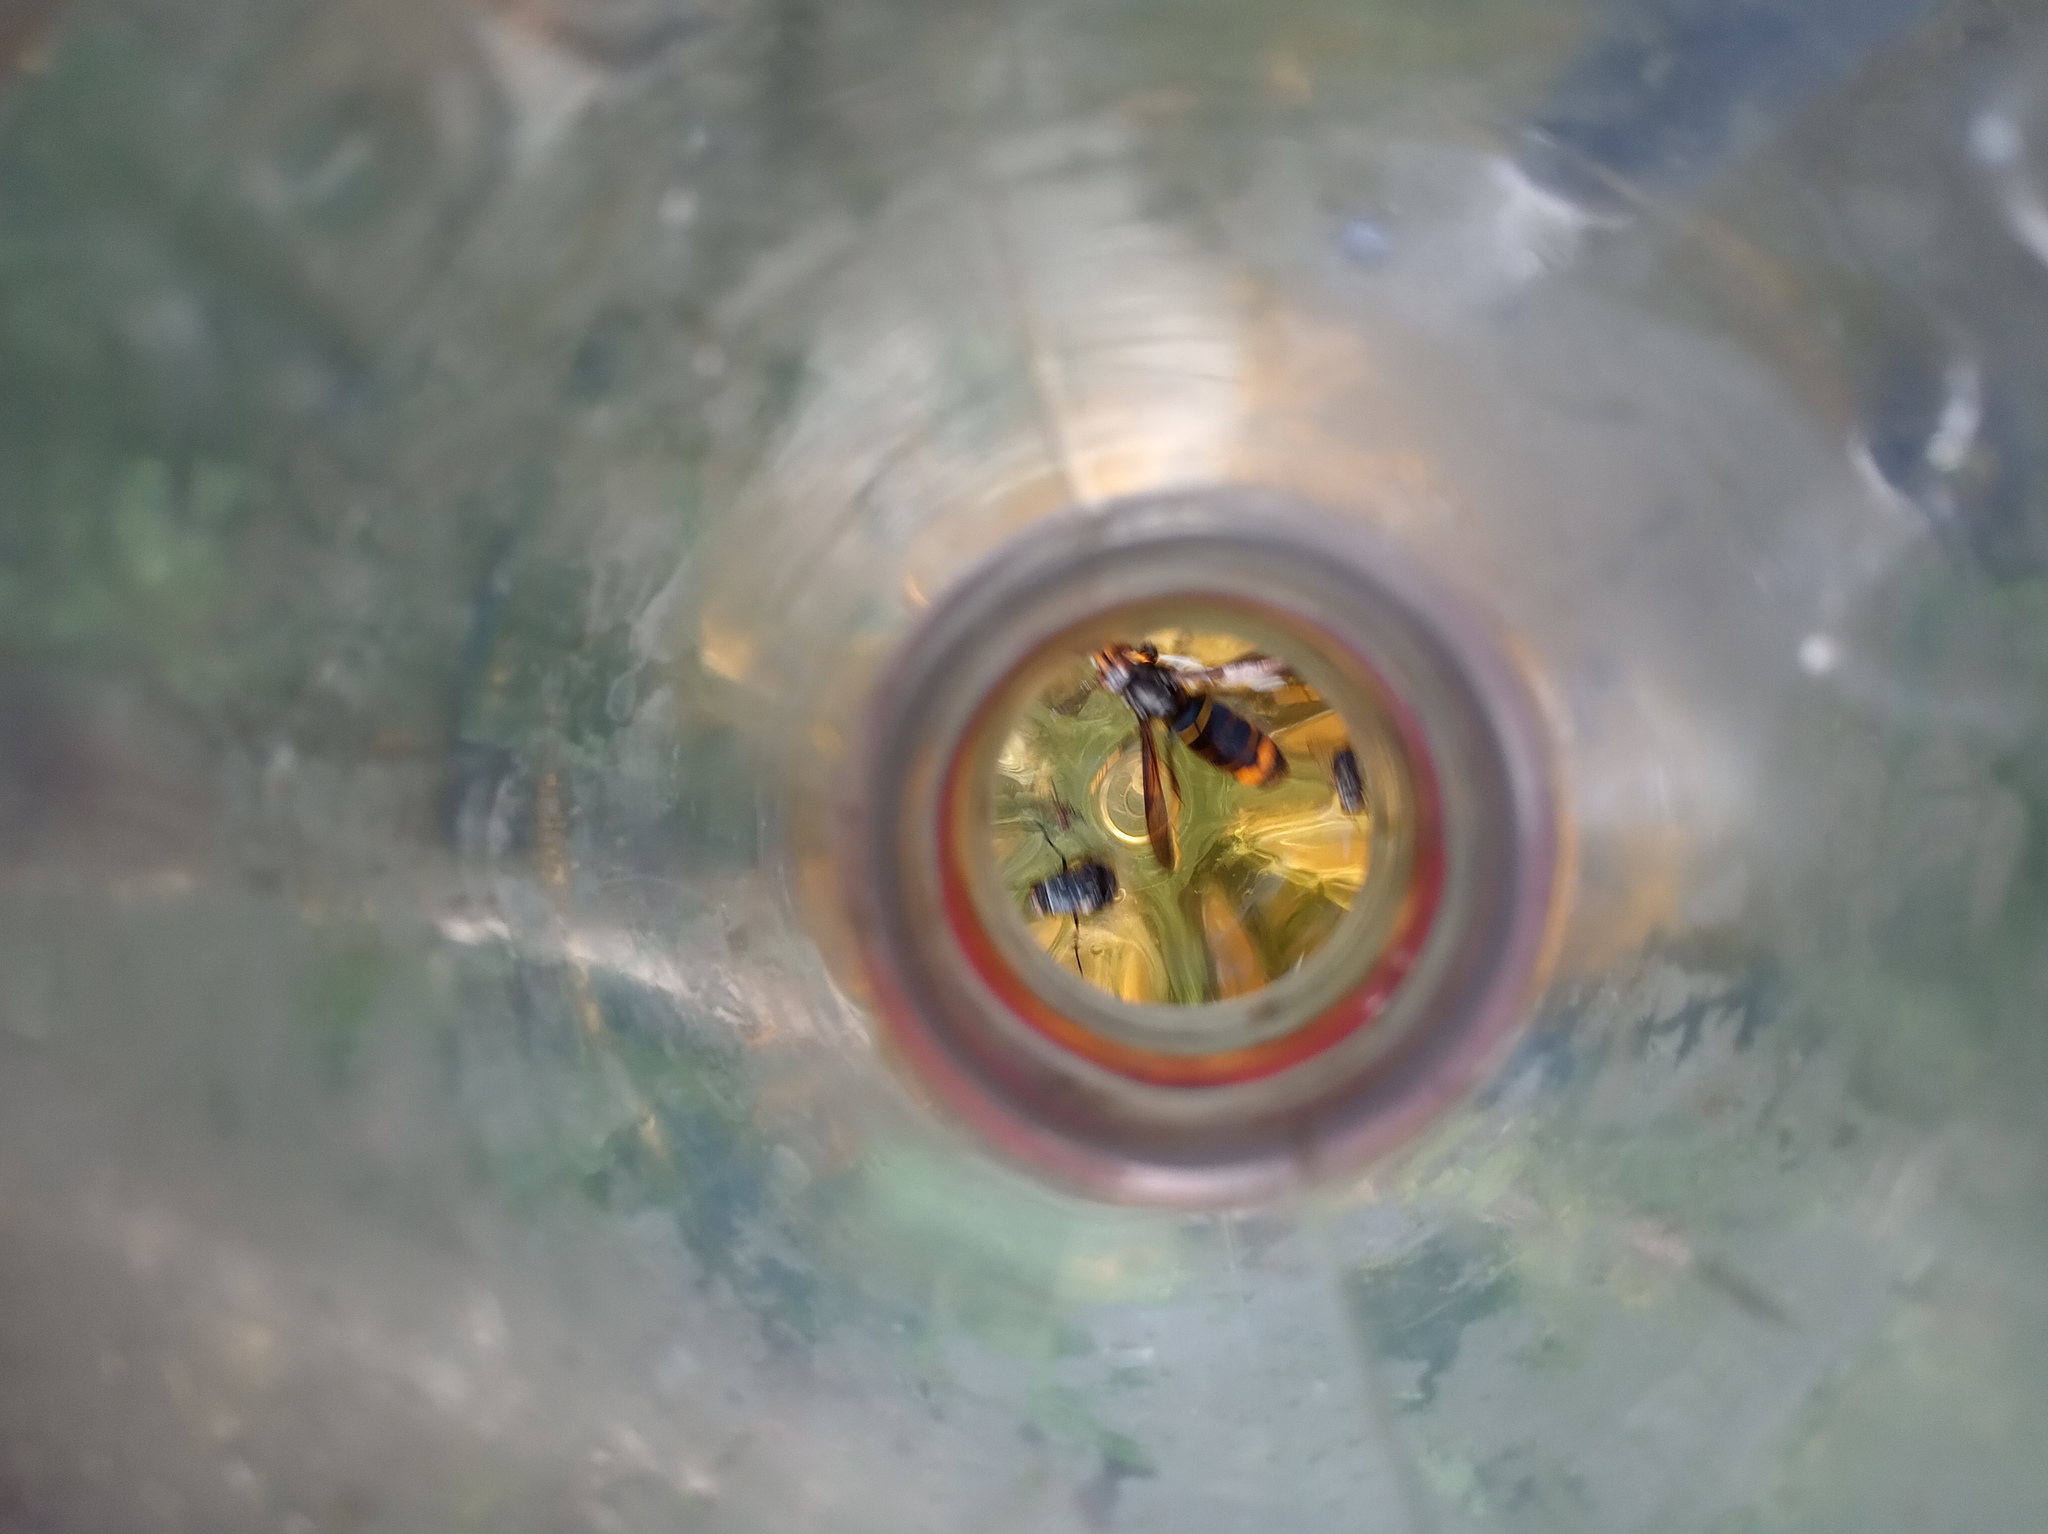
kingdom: Animalia
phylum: Arthropoda
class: Insecta
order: Hymenoptera
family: Vespidae
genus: Vespa
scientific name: Vespa velutina
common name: Asian hornet
